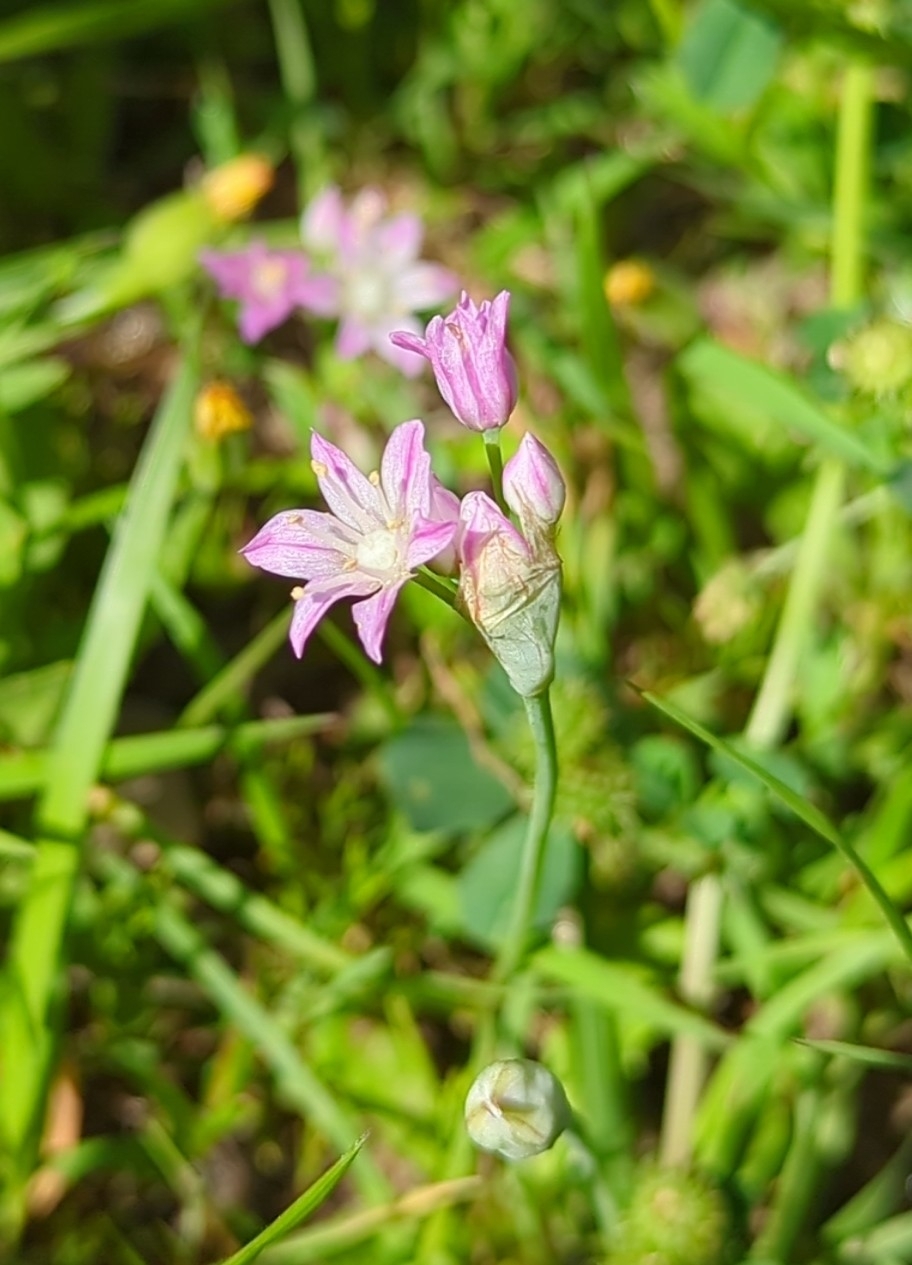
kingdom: Plantae
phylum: Tracheophyta
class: Liliopsida
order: Asparagales
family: Amaryllidaceae
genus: Allium
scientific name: Allium drummondii
